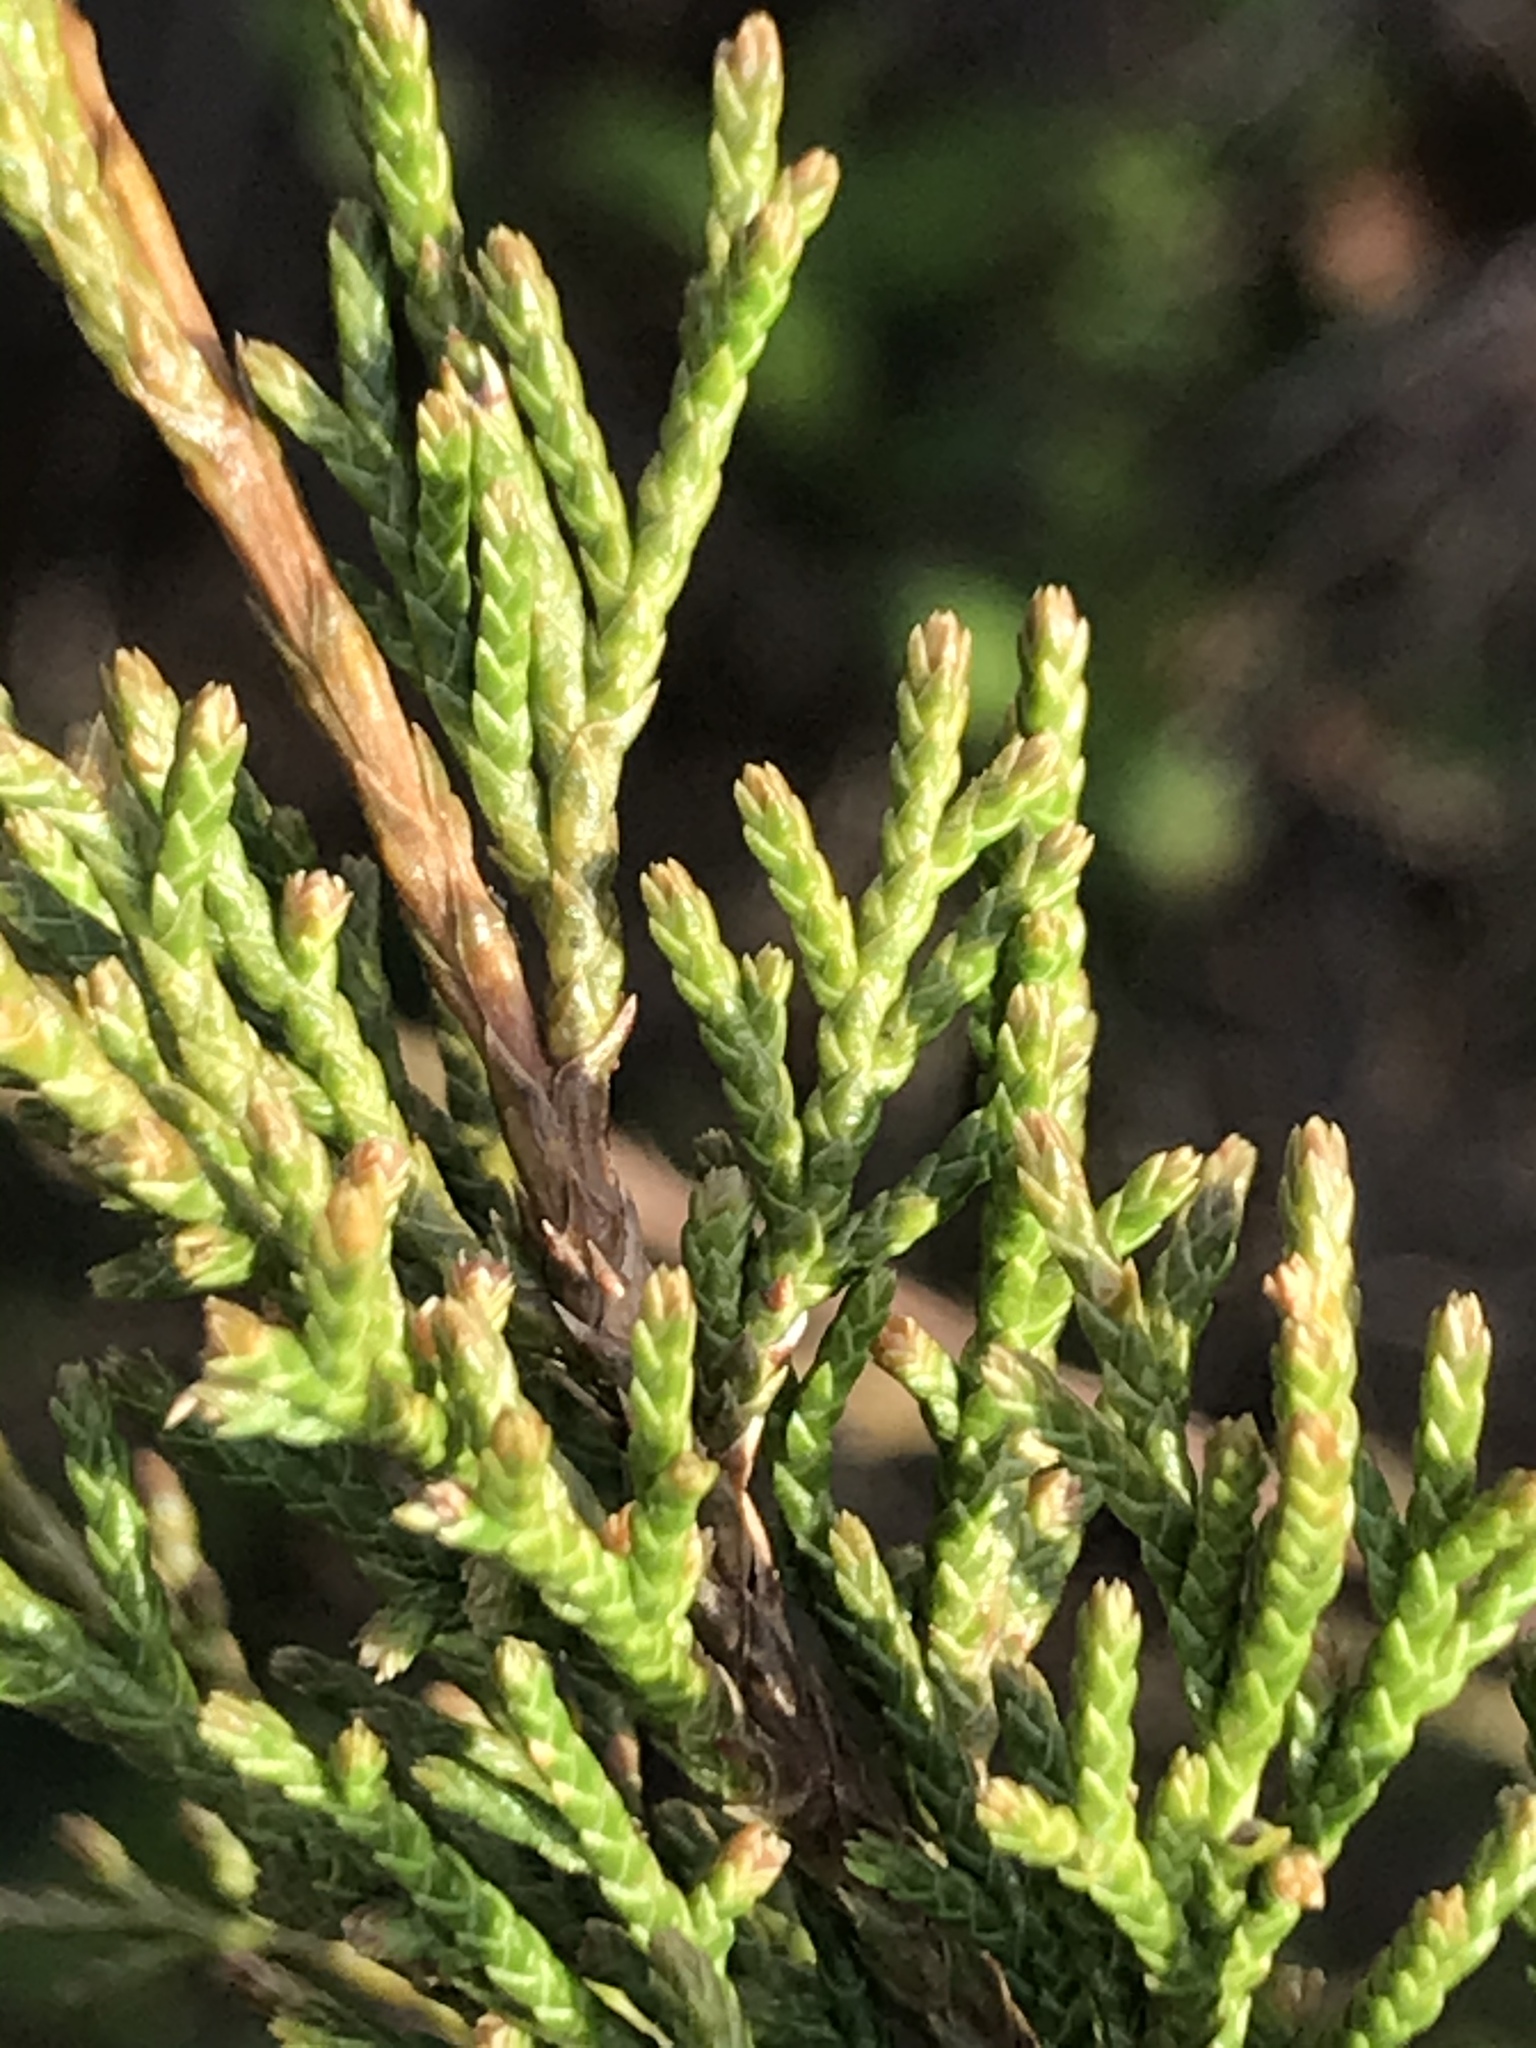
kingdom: Plantae
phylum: Tracheophyta
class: Pinopsida
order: Pinales
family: Cupressaceae
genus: Juniperus
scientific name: Juniperus virginiana
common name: Red juniper
